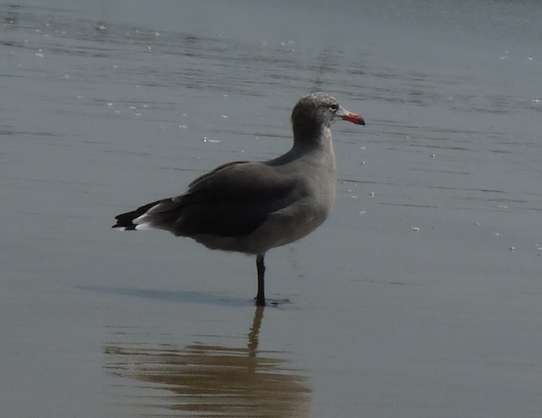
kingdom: Animalia
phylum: Chordata
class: Aves
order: Charadriiformes
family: Laridae
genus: Larus
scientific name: Larus heermanni
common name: Heermann's gull
